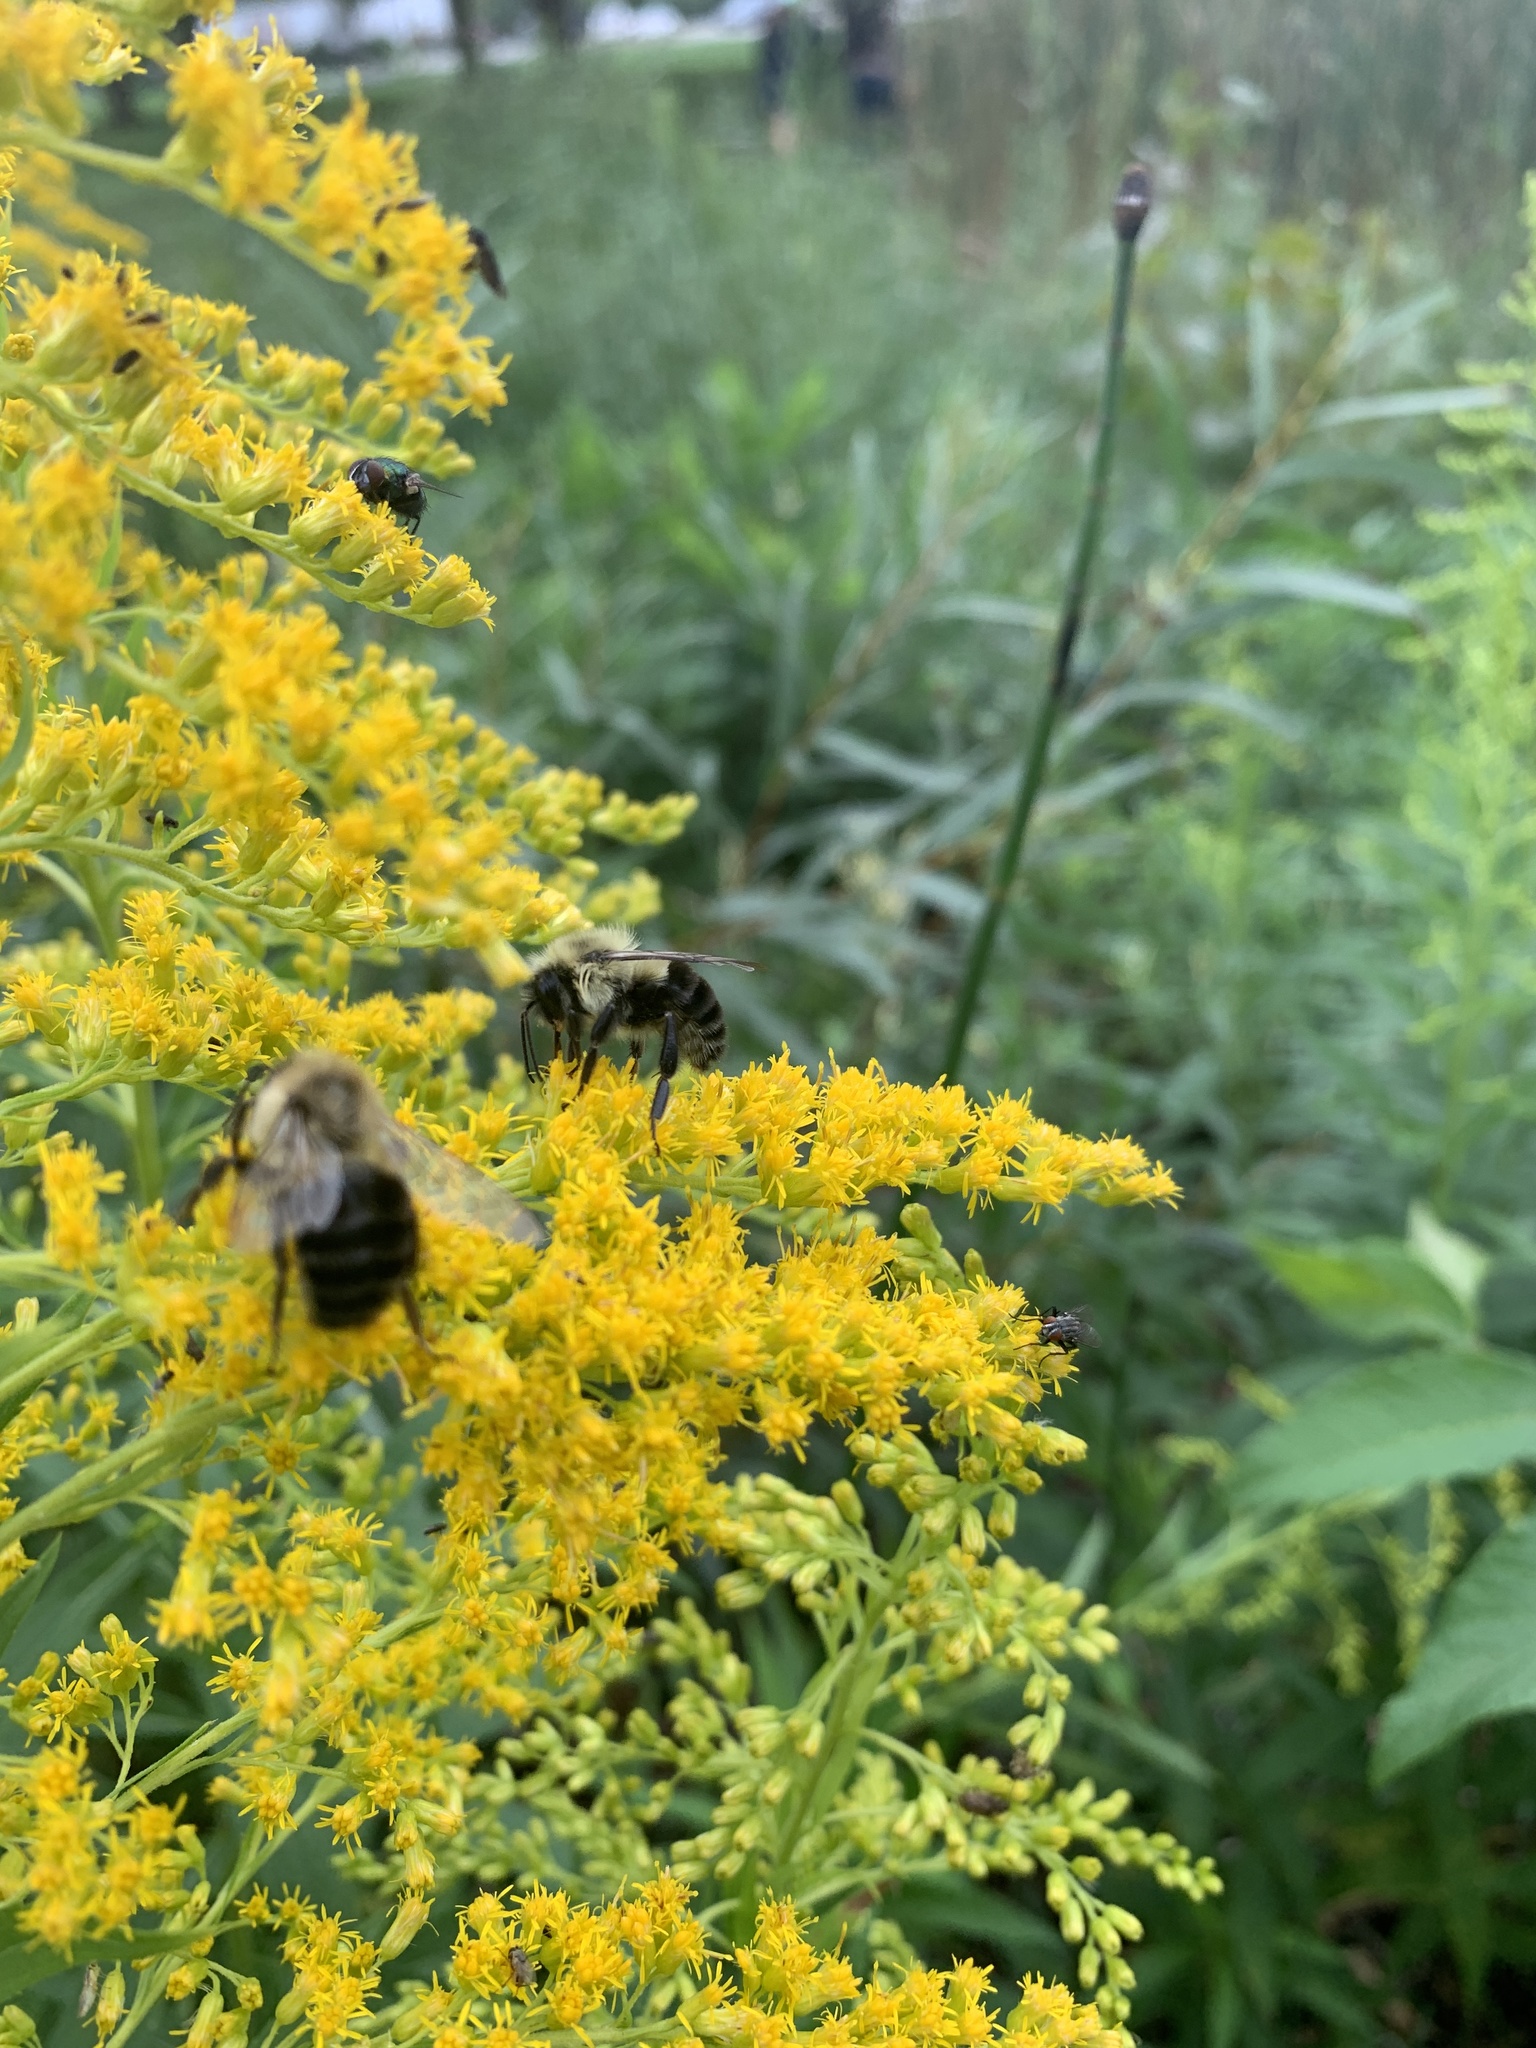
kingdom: Animalia
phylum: Arthropoda
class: Insecta
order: Hymenoptera
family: Apidae
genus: Bombus
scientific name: Bombus impatiens
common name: Common eastern bumble bee
